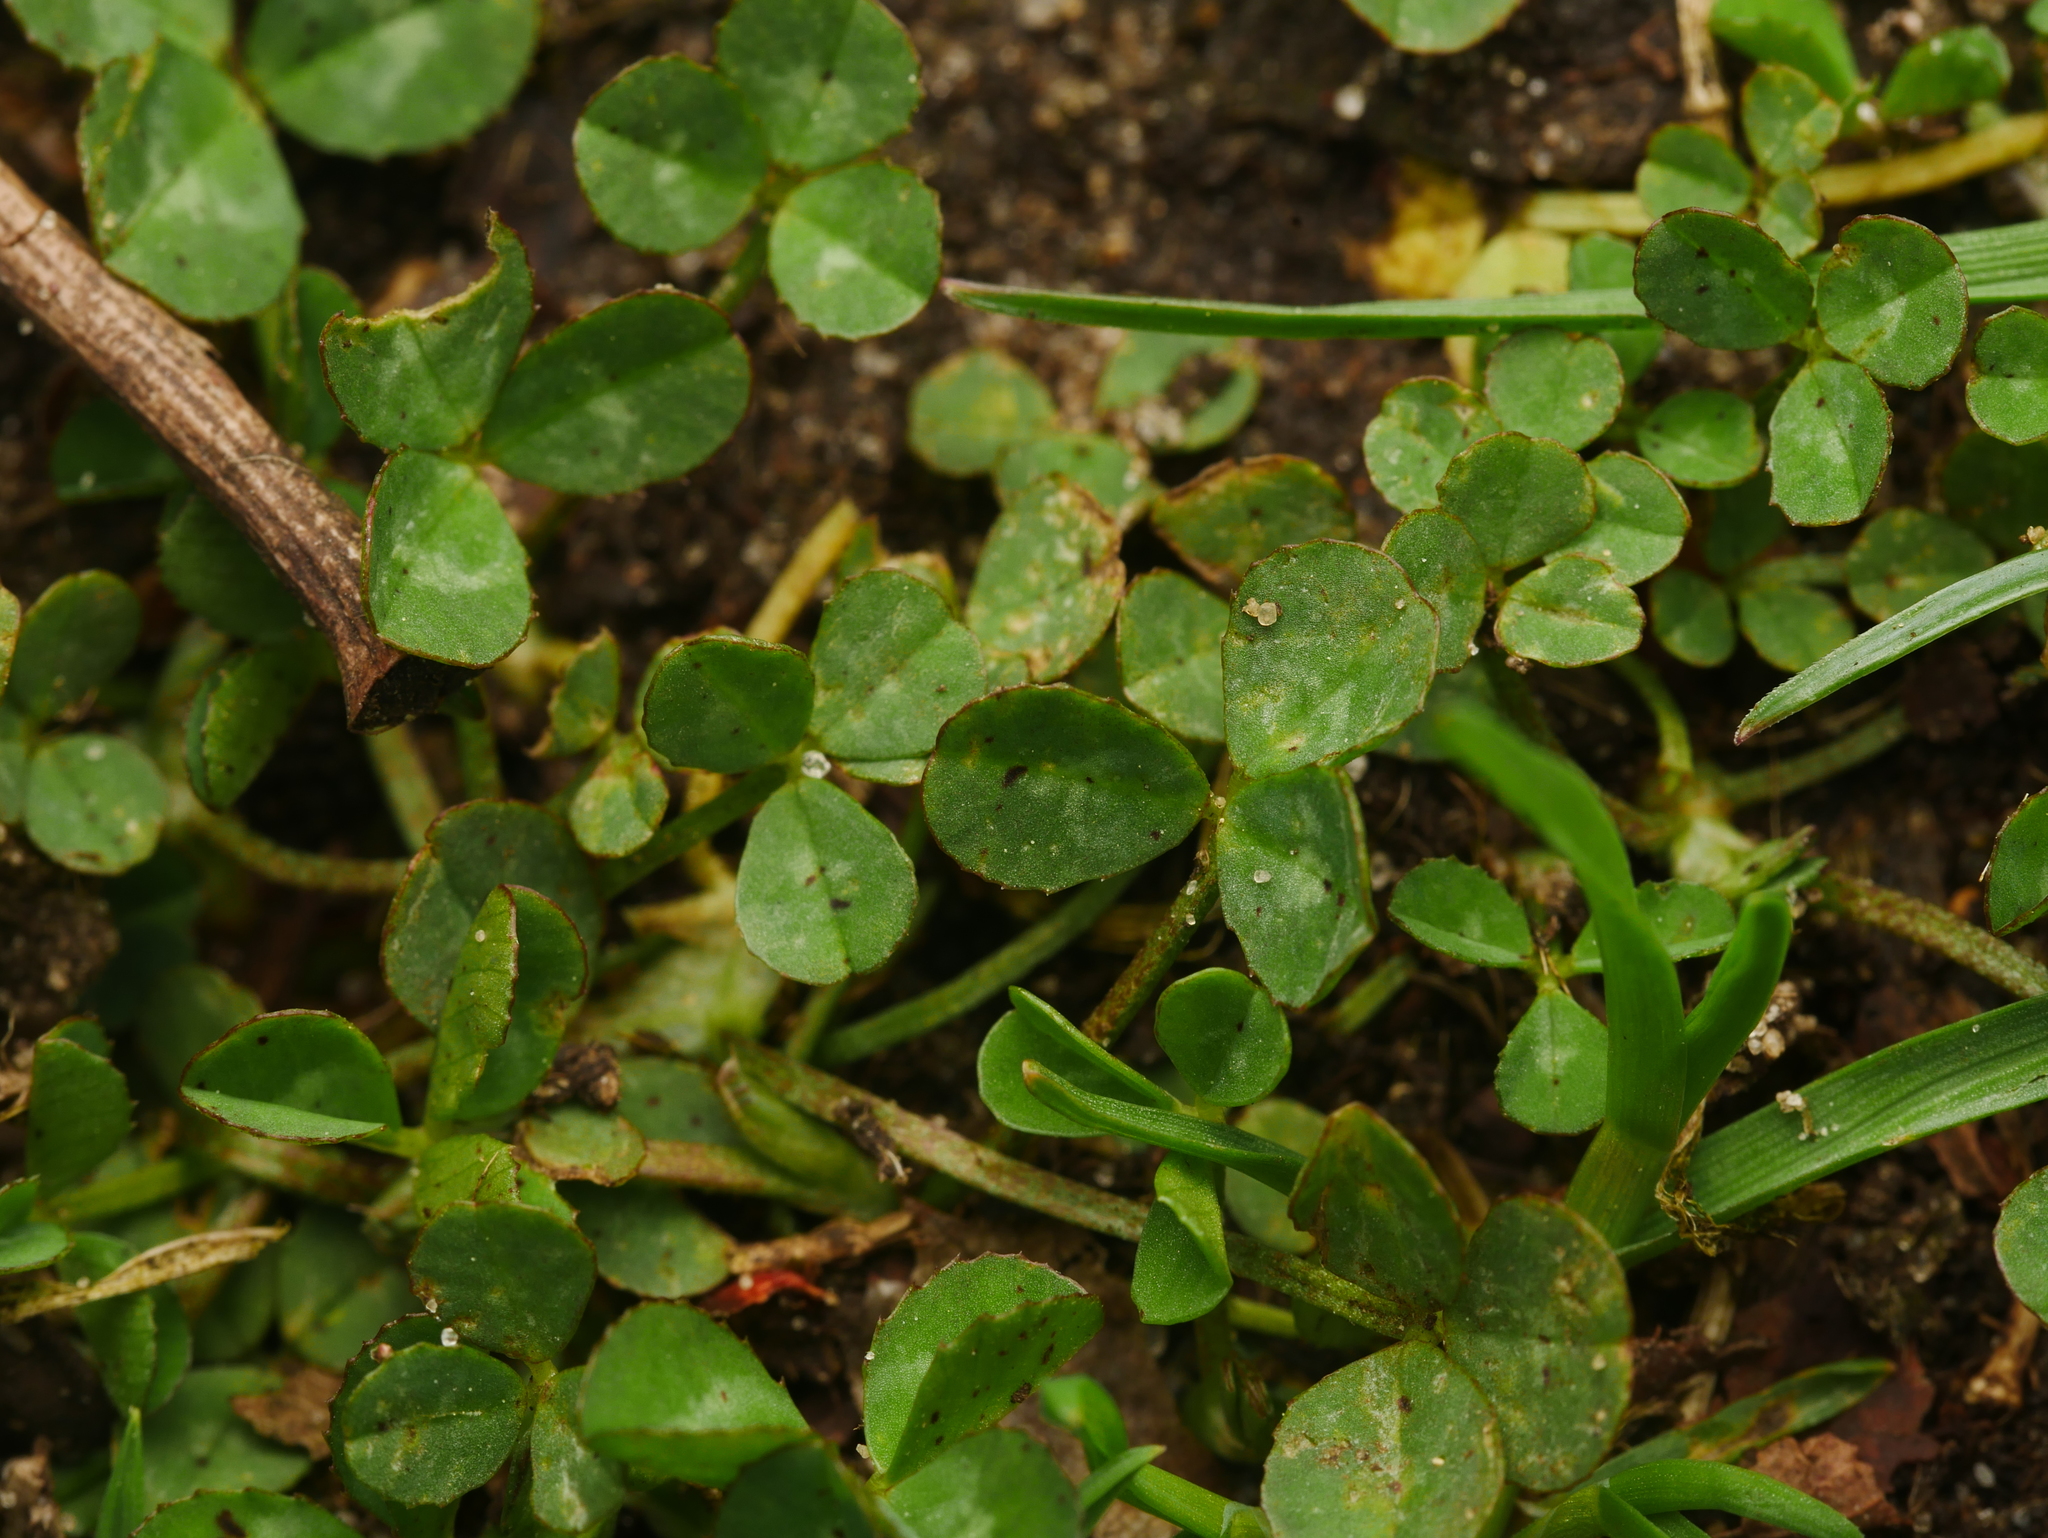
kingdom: Plantae
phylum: Tracheophyta
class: Magnoliopsida
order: Fabales
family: Fabaceae
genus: Trifolium
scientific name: Trifolium repens
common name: White clover
